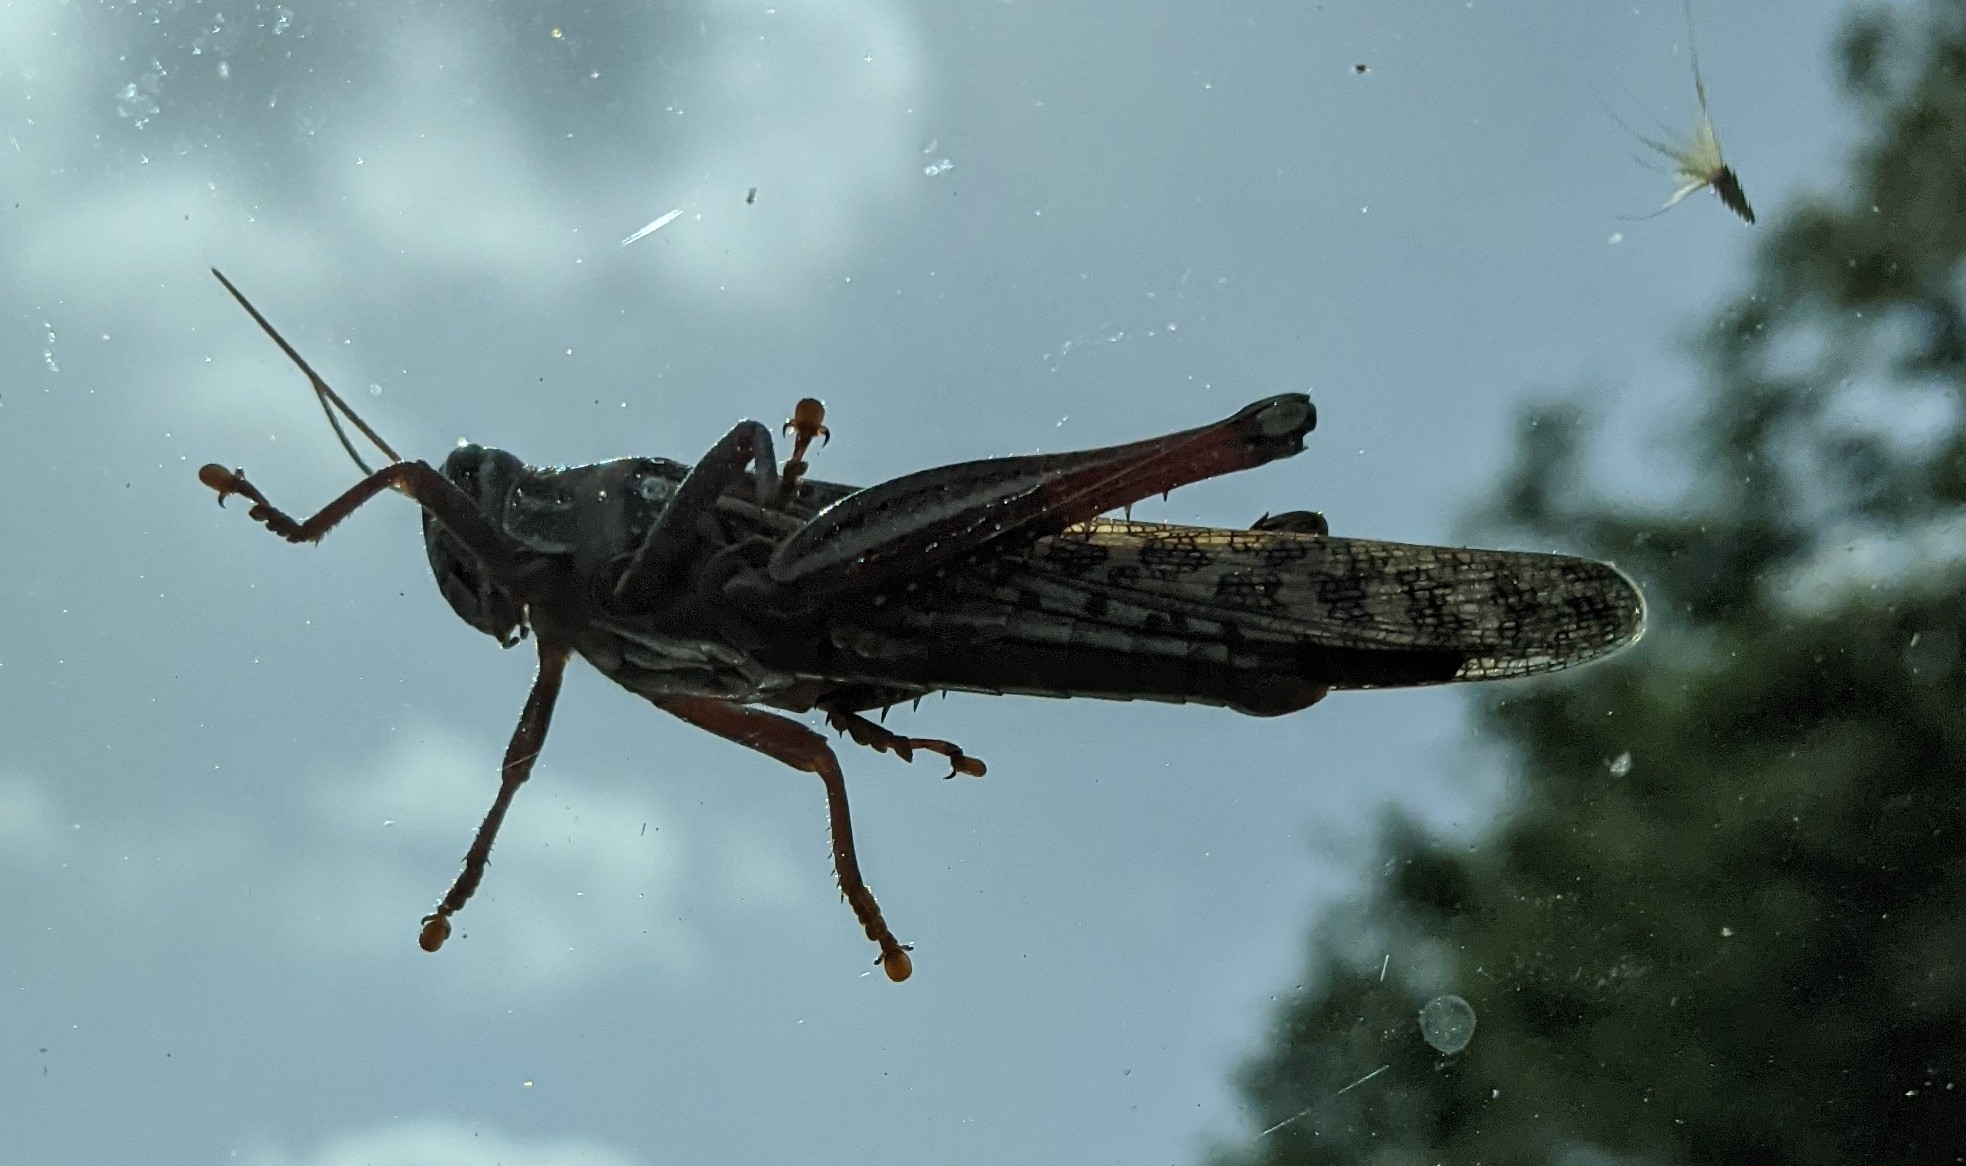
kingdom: Animalia
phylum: Arthropoda
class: Insecta
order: Orthoptera
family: Acrididae
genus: Schistocerca
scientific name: Schistocerca americana
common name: American bird locust
